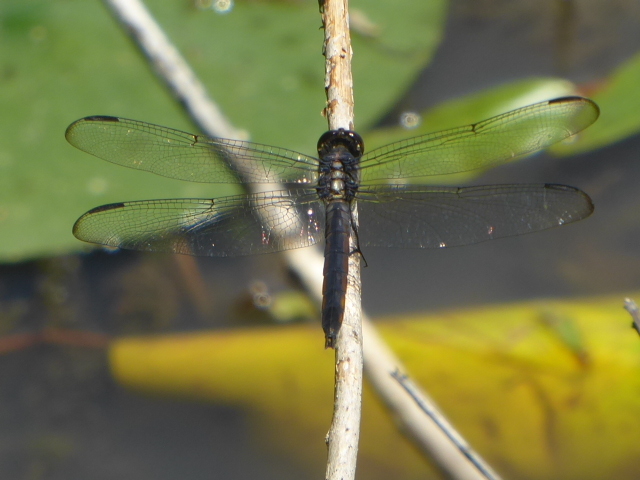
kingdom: Animalia
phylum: Arthropoda
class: Insecta
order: Odonata
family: Libellulidae
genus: Libellula
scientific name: Libellula incesta
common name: Slaty skimmer
